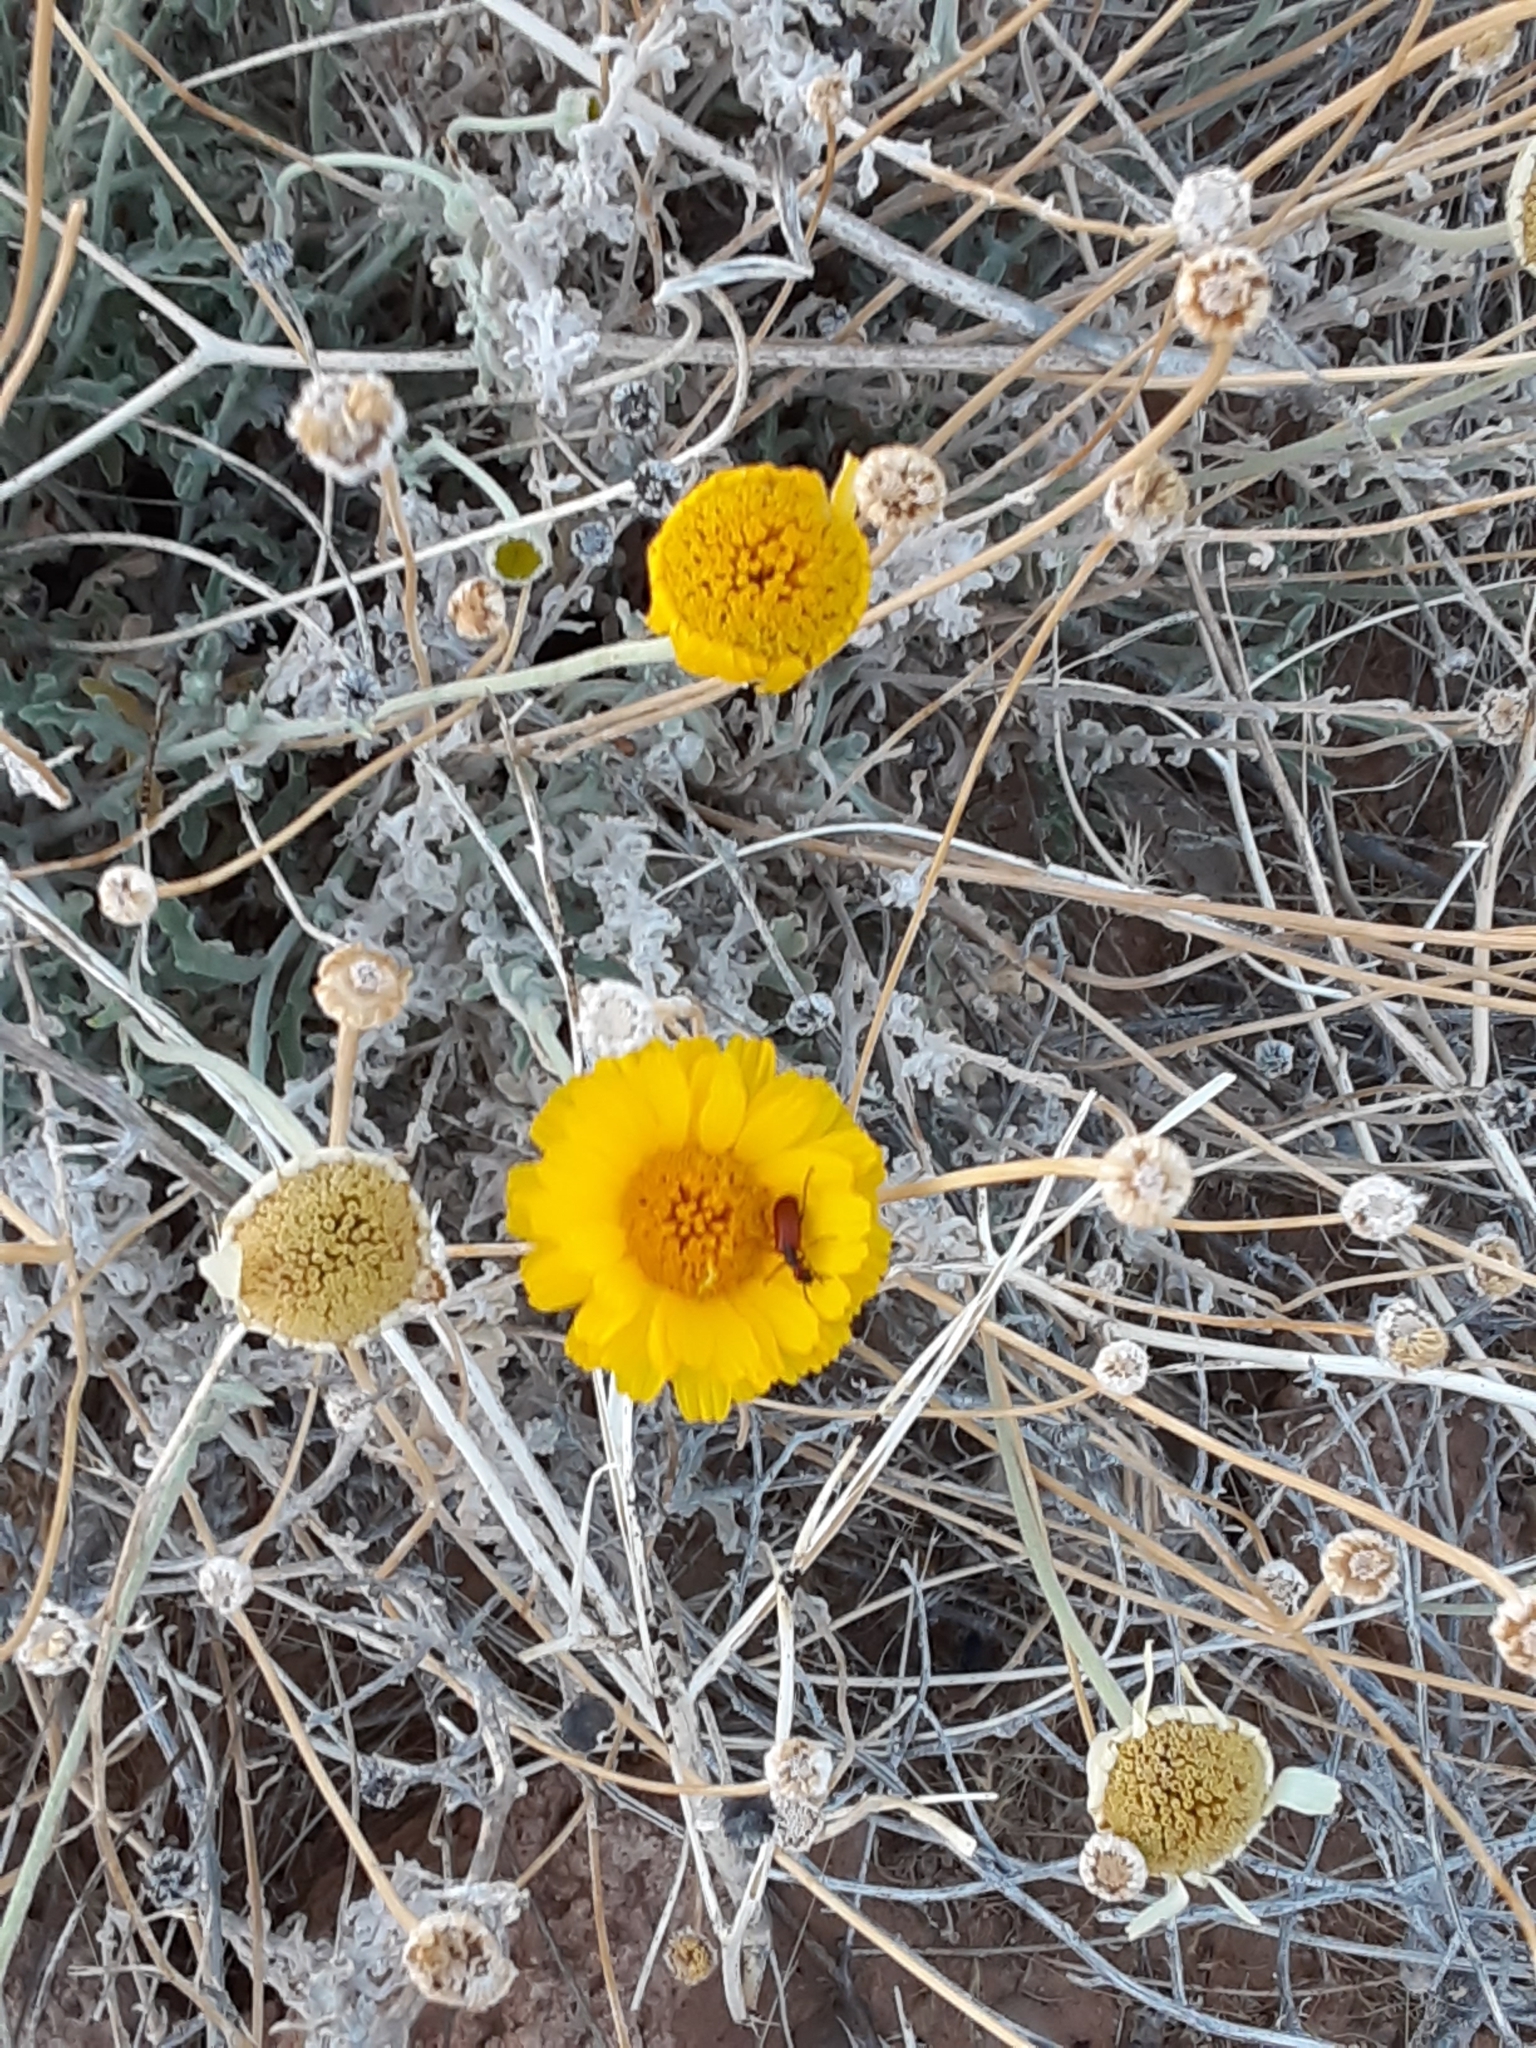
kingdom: Plantae
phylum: Tracheophyta
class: Magnoliopsida
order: Asterales
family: Asteraceae
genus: Baileya
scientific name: Baileya multiradiata
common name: Desert-marigold
